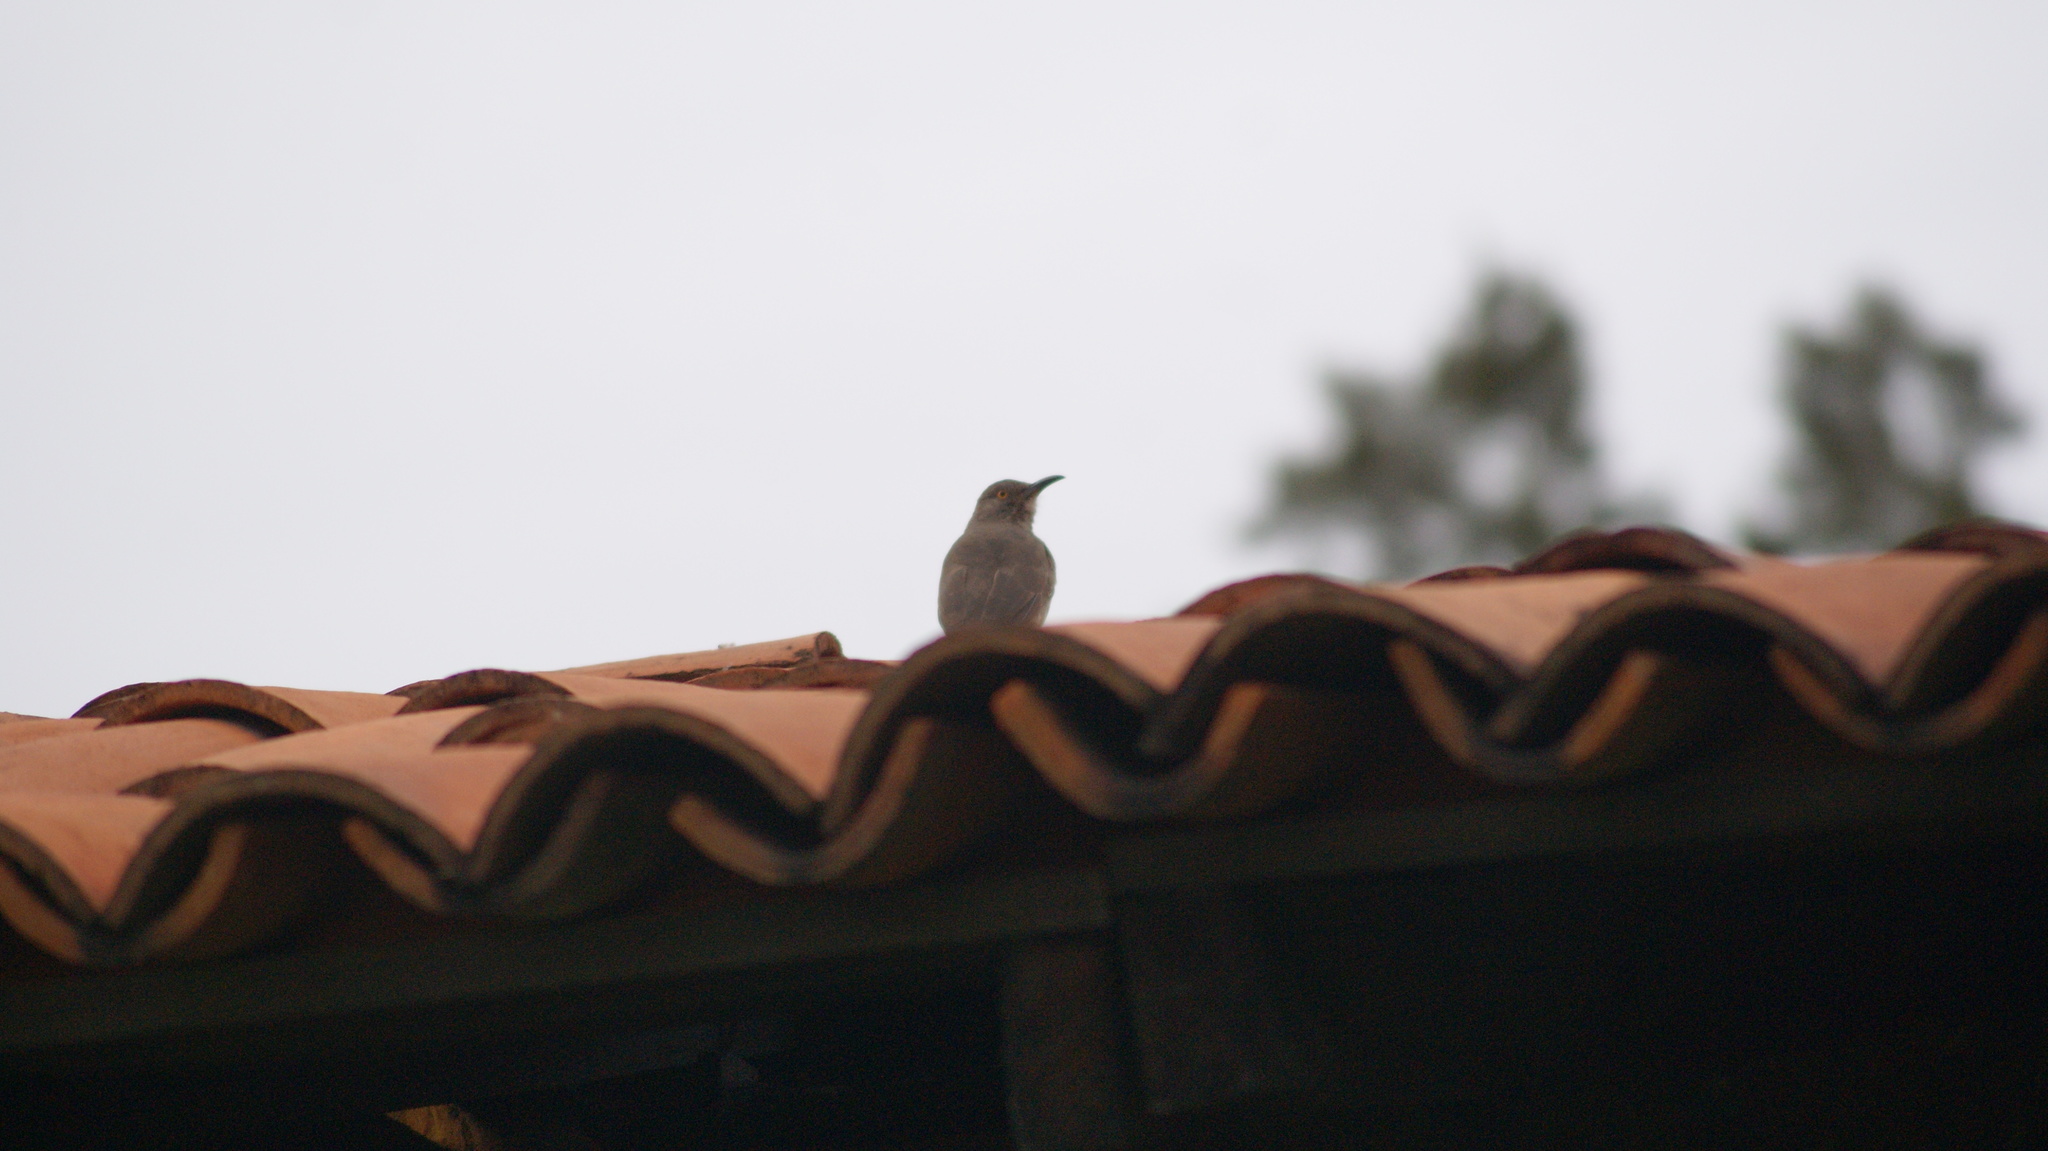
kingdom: Animalia
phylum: Chordata
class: Aves
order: Passeriformes
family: Mimidae
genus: Toxostoma
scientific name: Toxostoma curvirostre
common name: Curve-billed thrasher
